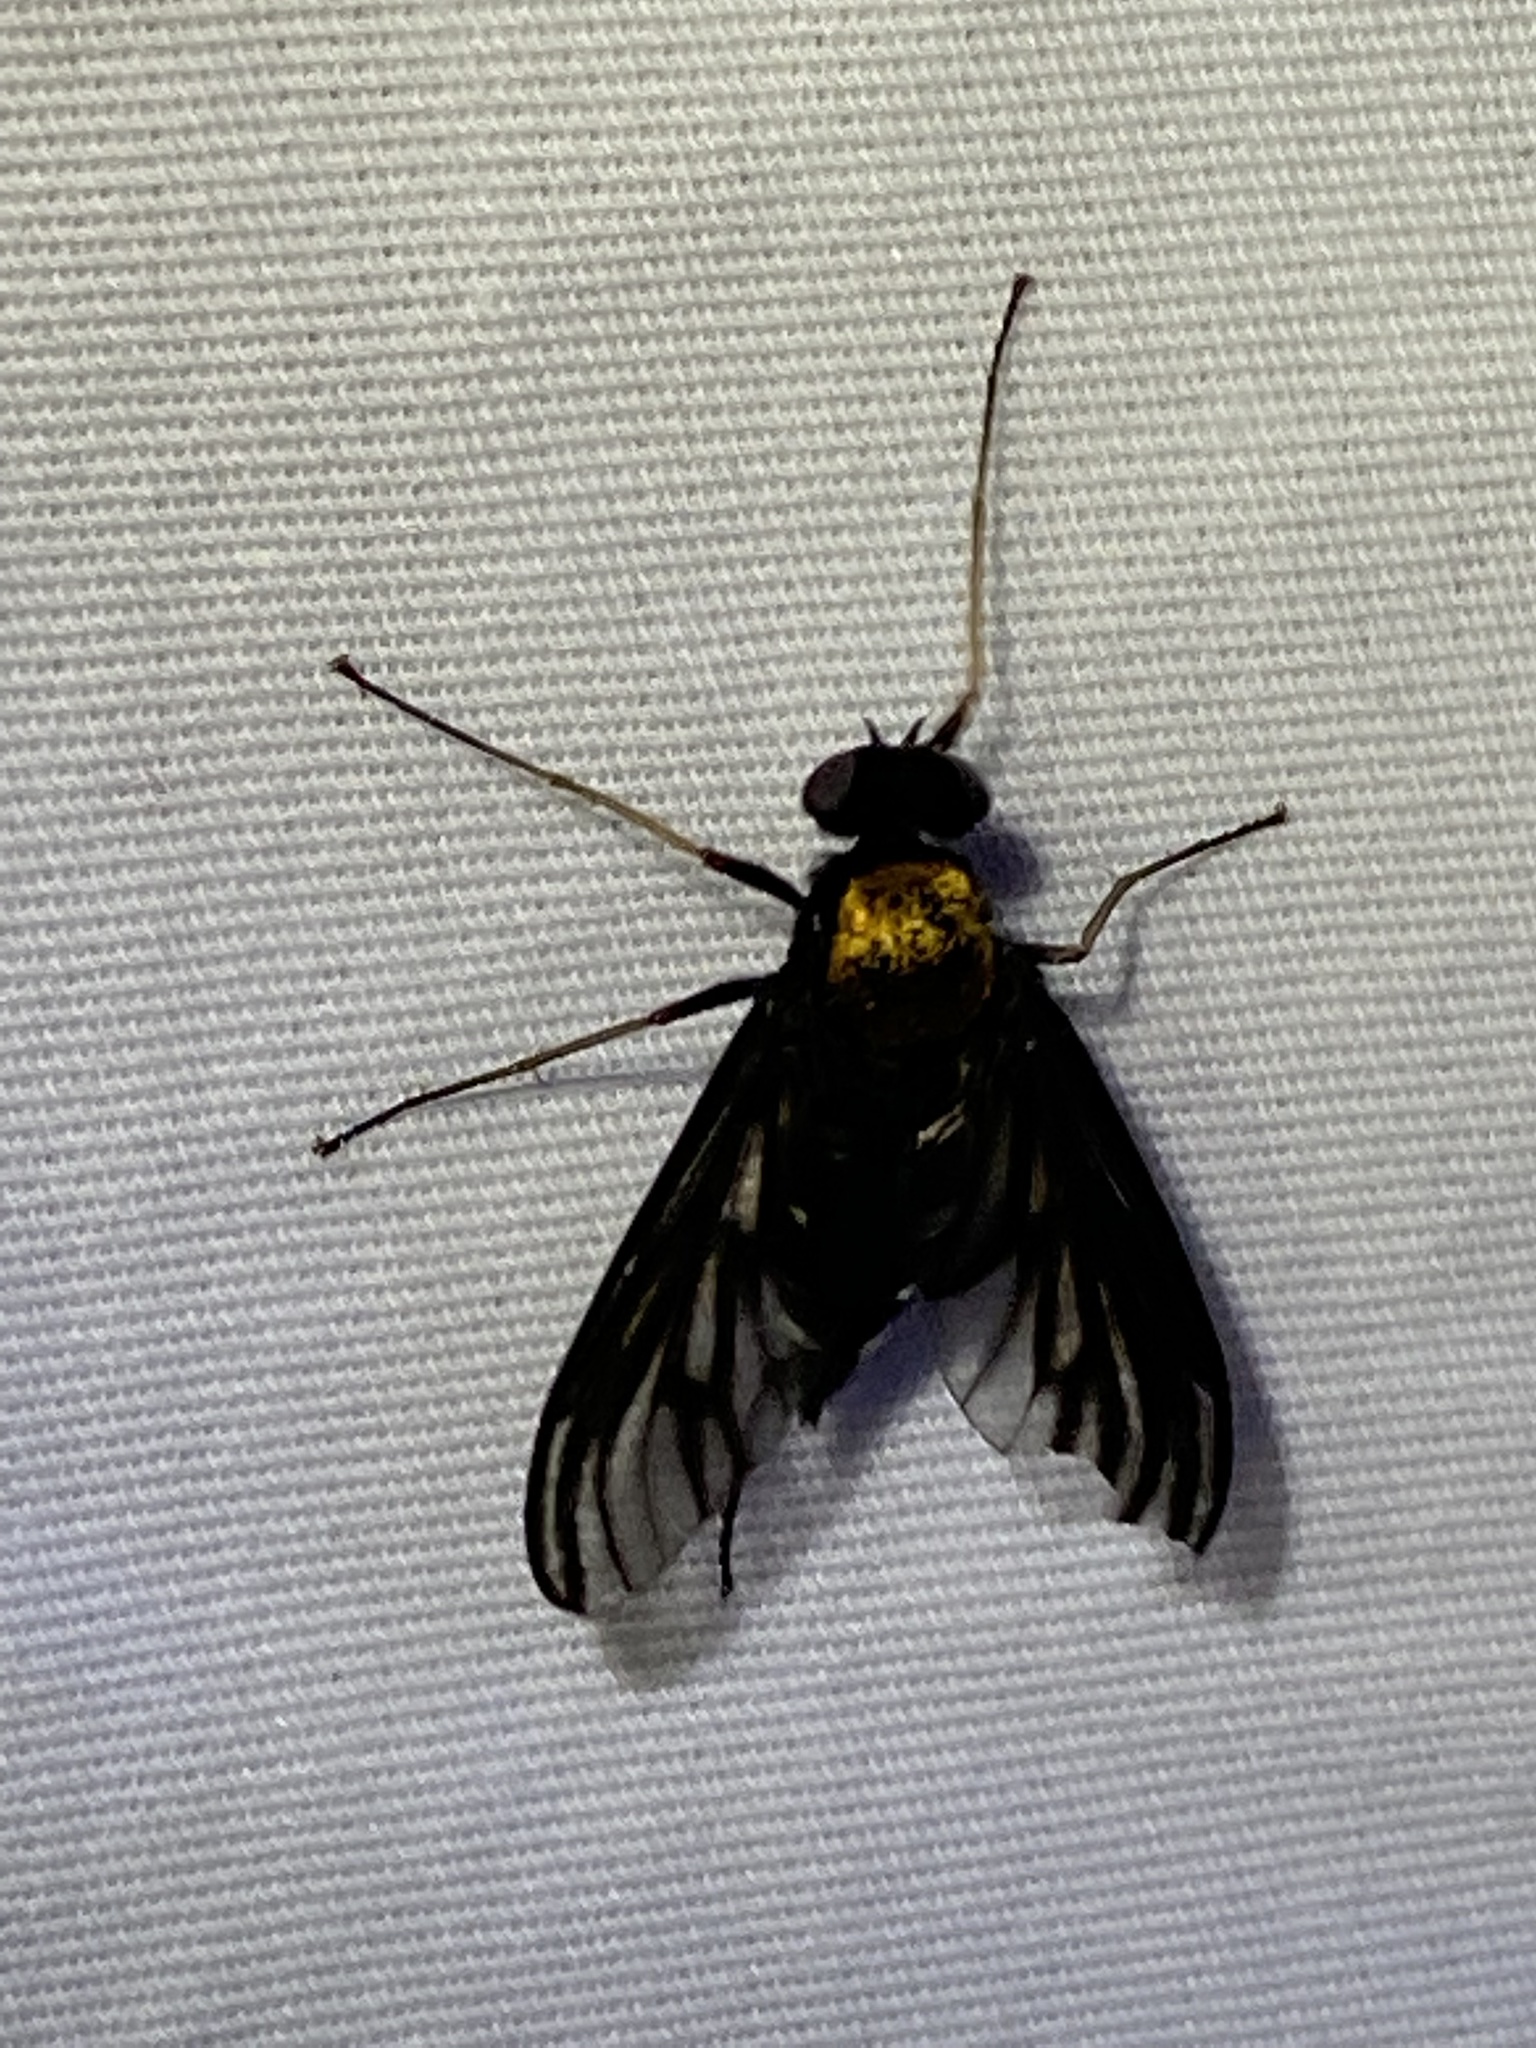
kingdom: Animalia
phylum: Arthropoda
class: Insecta
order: Diptera
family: Rhagionidae
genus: Chrysopilus
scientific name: Chrysopilus thoracicus
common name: Golden-backed snipe fly
